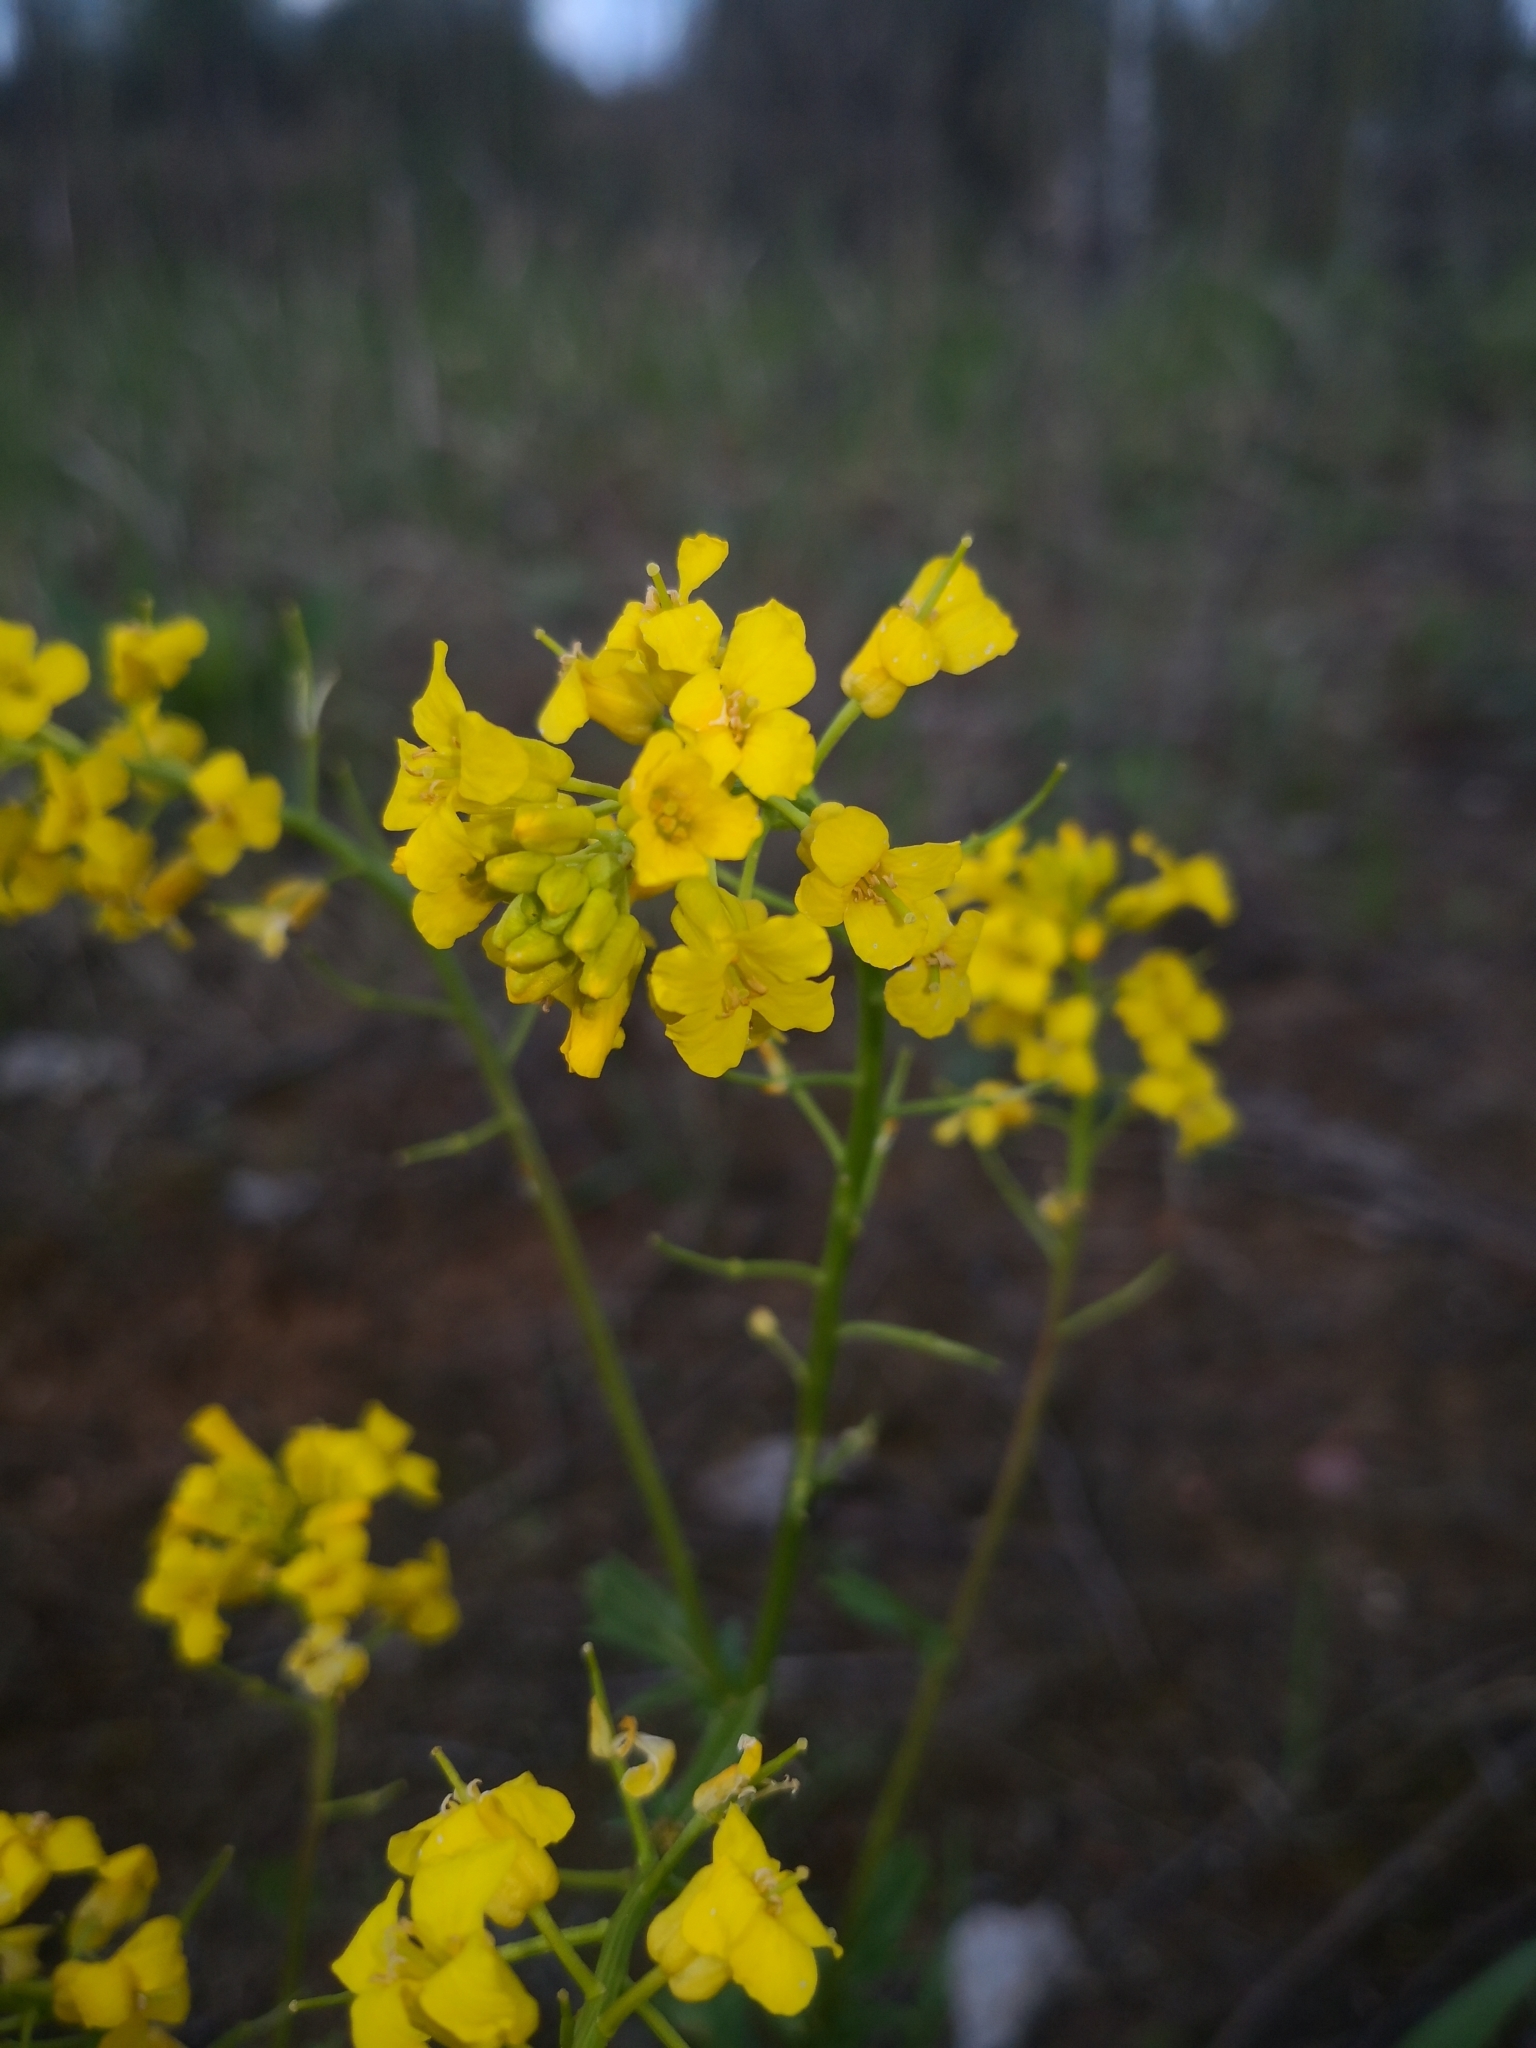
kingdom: Plantae
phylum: Tracheophyta
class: Magnoliopsida
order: Brassicales
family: Brassicaceae
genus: Barbarea
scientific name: Barbarea vulgaris
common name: Cressy-greens
